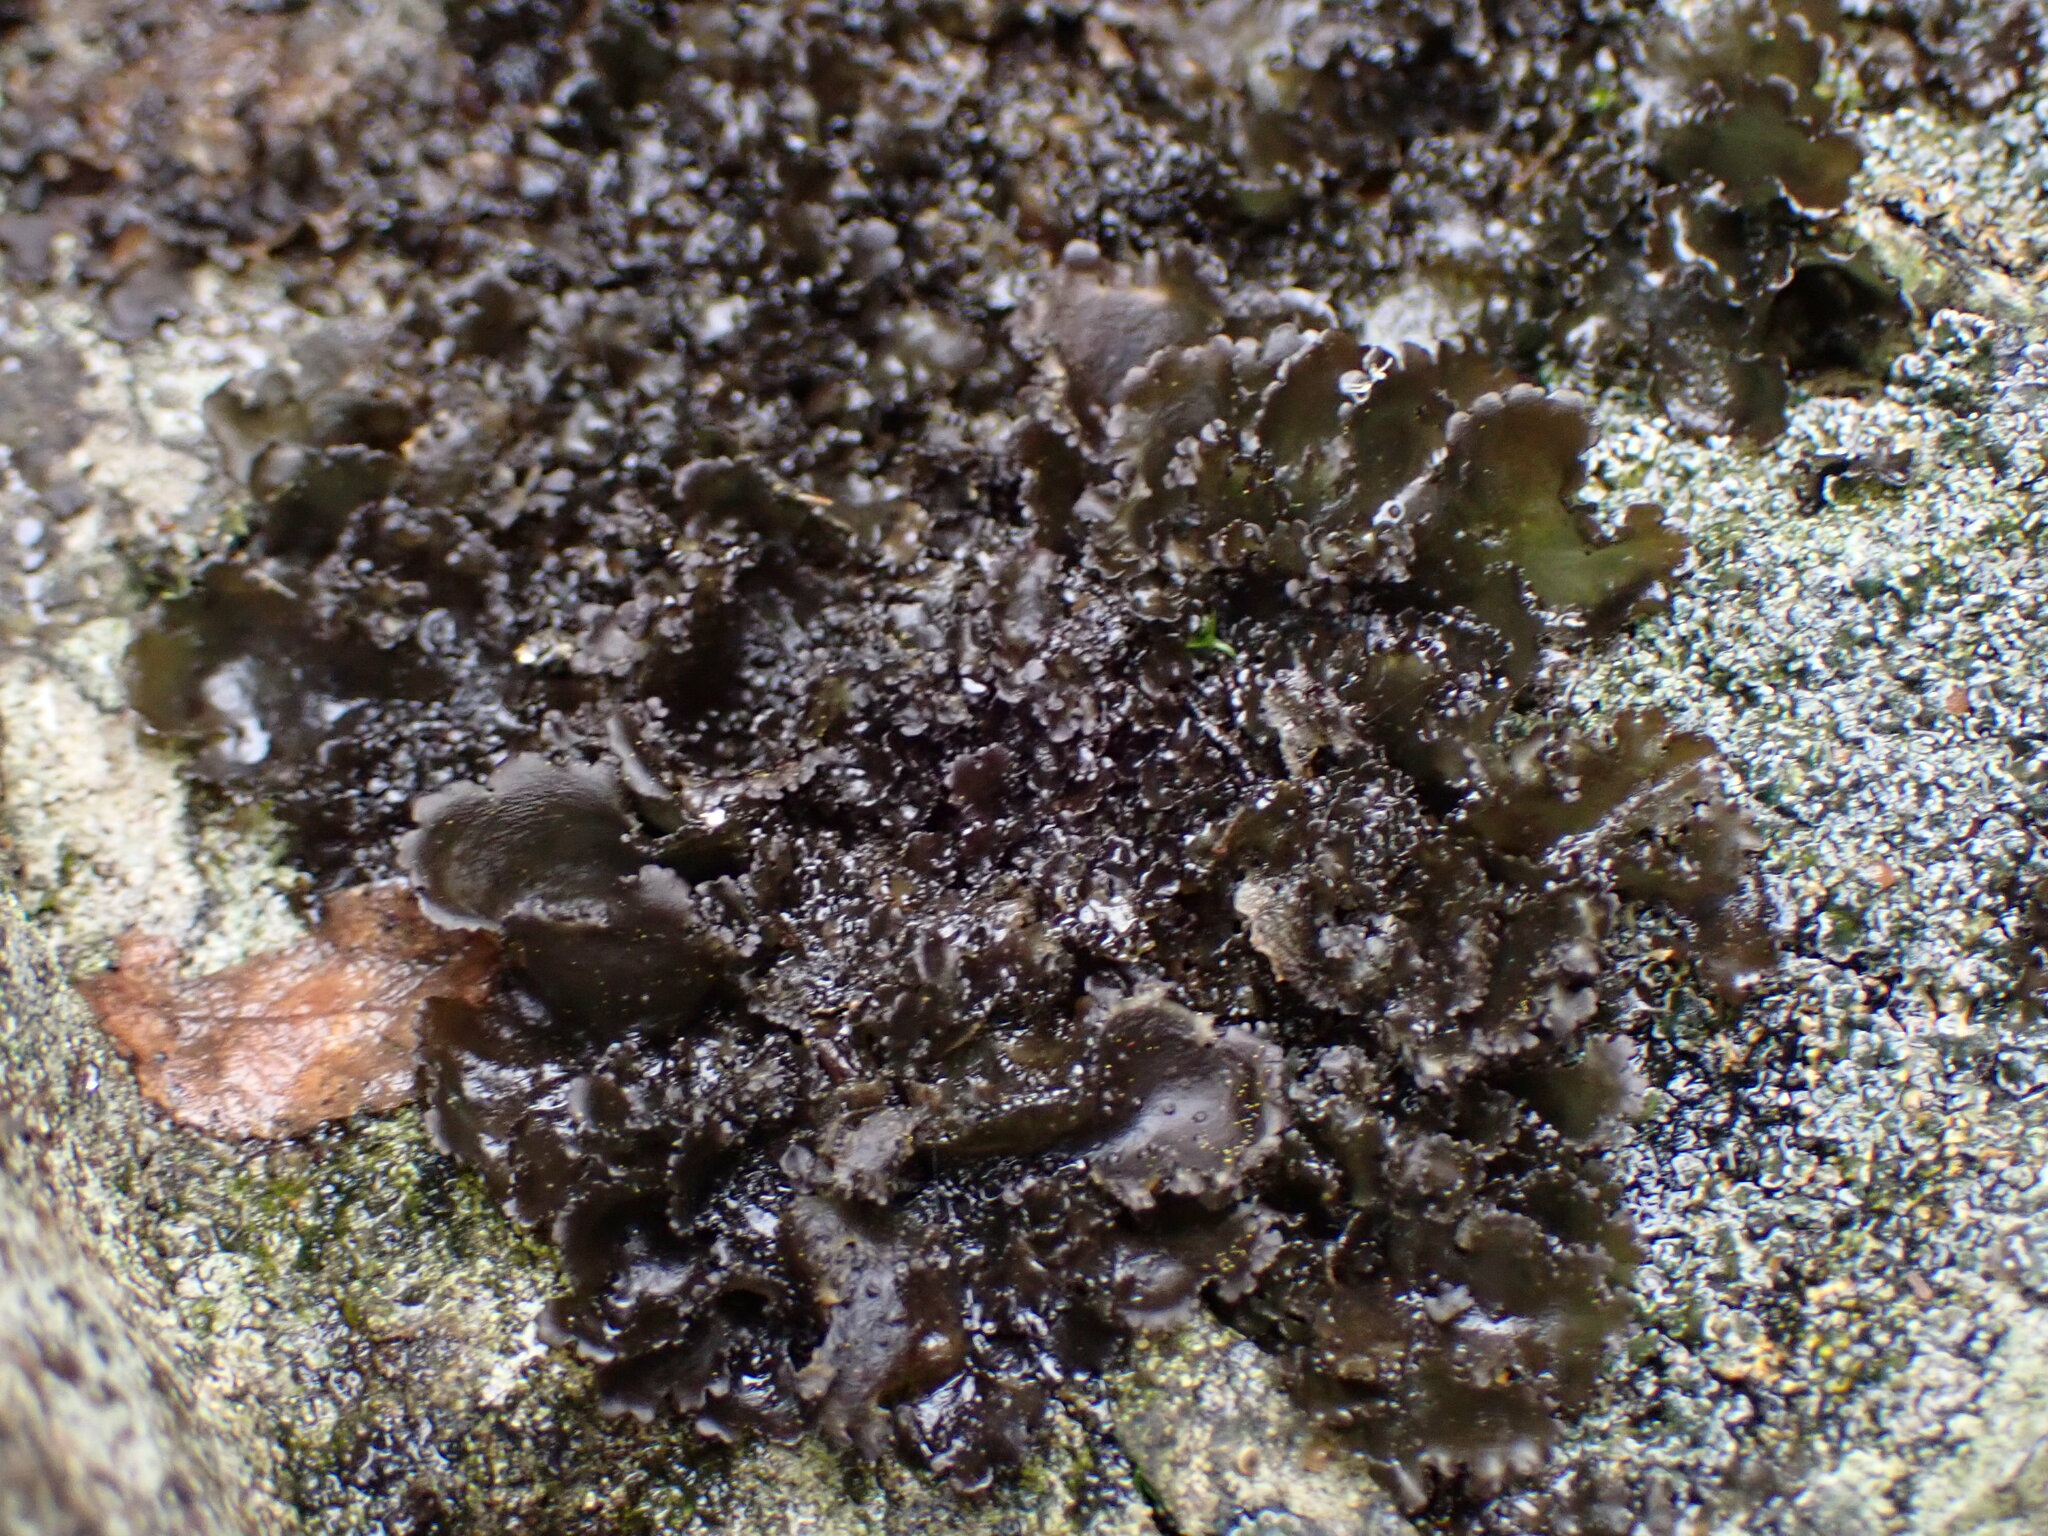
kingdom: Fungi
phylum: Ascomycota
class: Lecanoromycetes
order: Peltigerales
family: Collemataceae
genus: Scytinium
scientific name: Scytinium platynum
